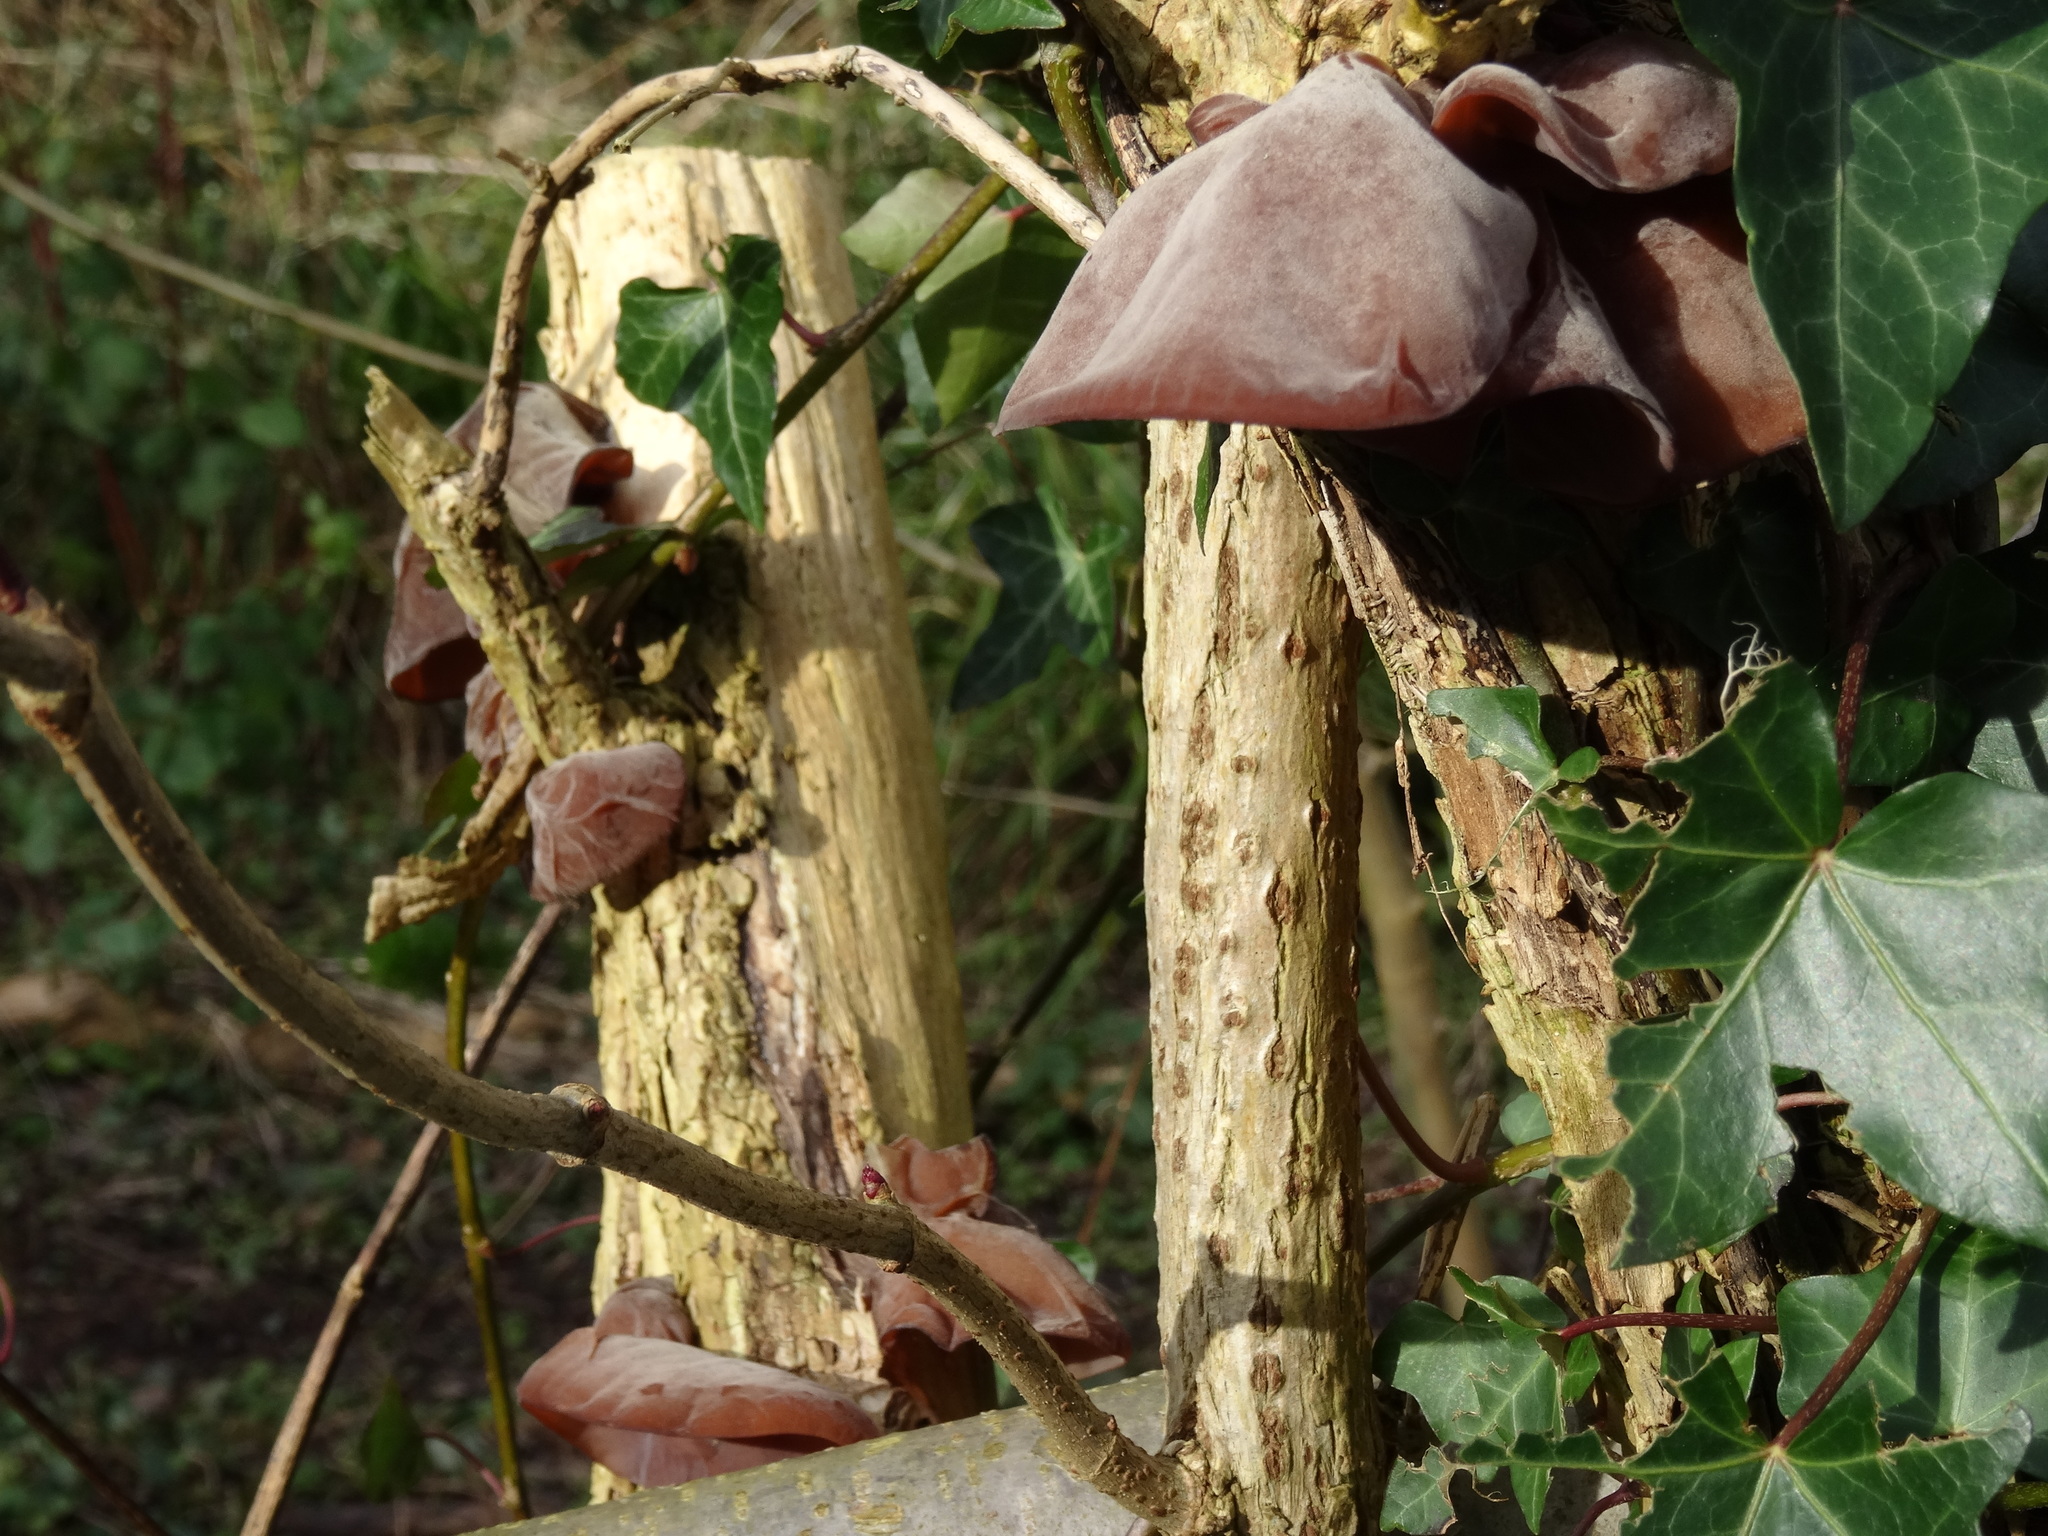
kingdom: Fungi
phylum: Basidiomycota
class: Agaricomycetes
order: Auriculariales
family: Auriculariaceae
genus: Auricularia
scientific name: Auricularia auricula-judae
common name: Jelly ear
